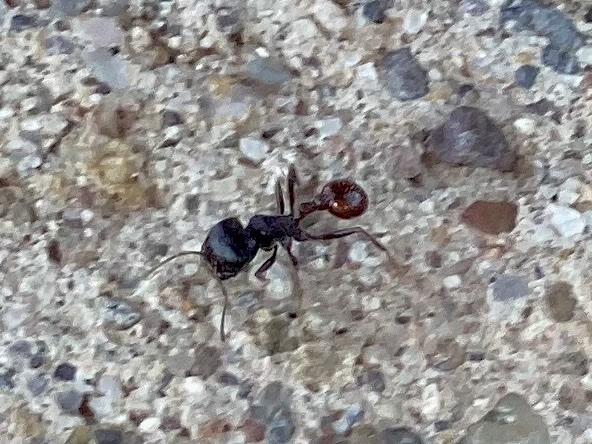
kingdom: Animalia
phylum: Arthropoda
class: Insecta
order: Hymenoptera
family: Formicidae
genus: Pogonomyrmex
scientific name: Pogonomyrmex rugosus
